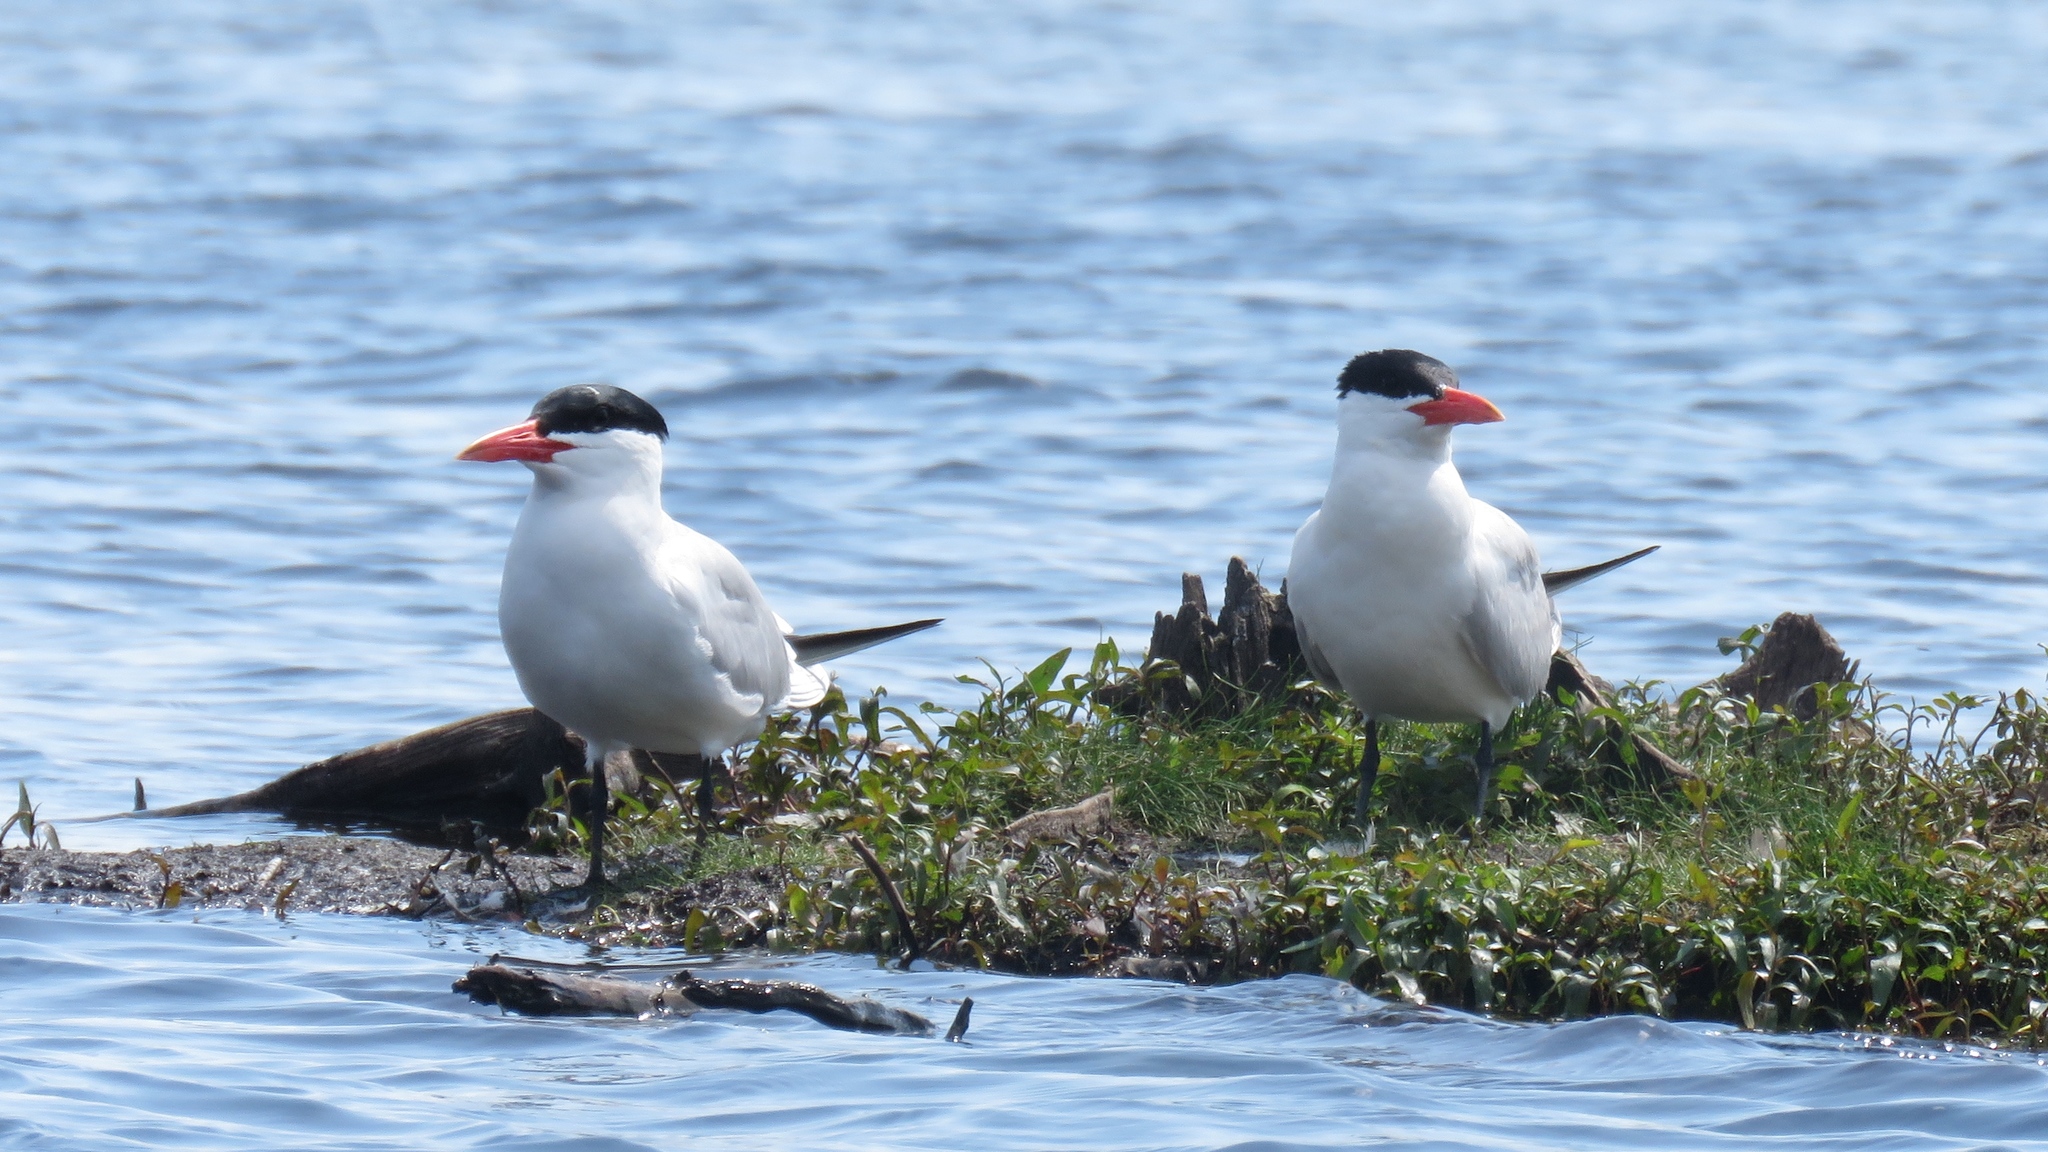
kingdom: Animalia
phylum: Chordata
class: Aves
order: Charadriiformes
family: Laridae
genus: Hydroprogne
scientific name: Hydroprogne caspia
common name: Caspian tern
